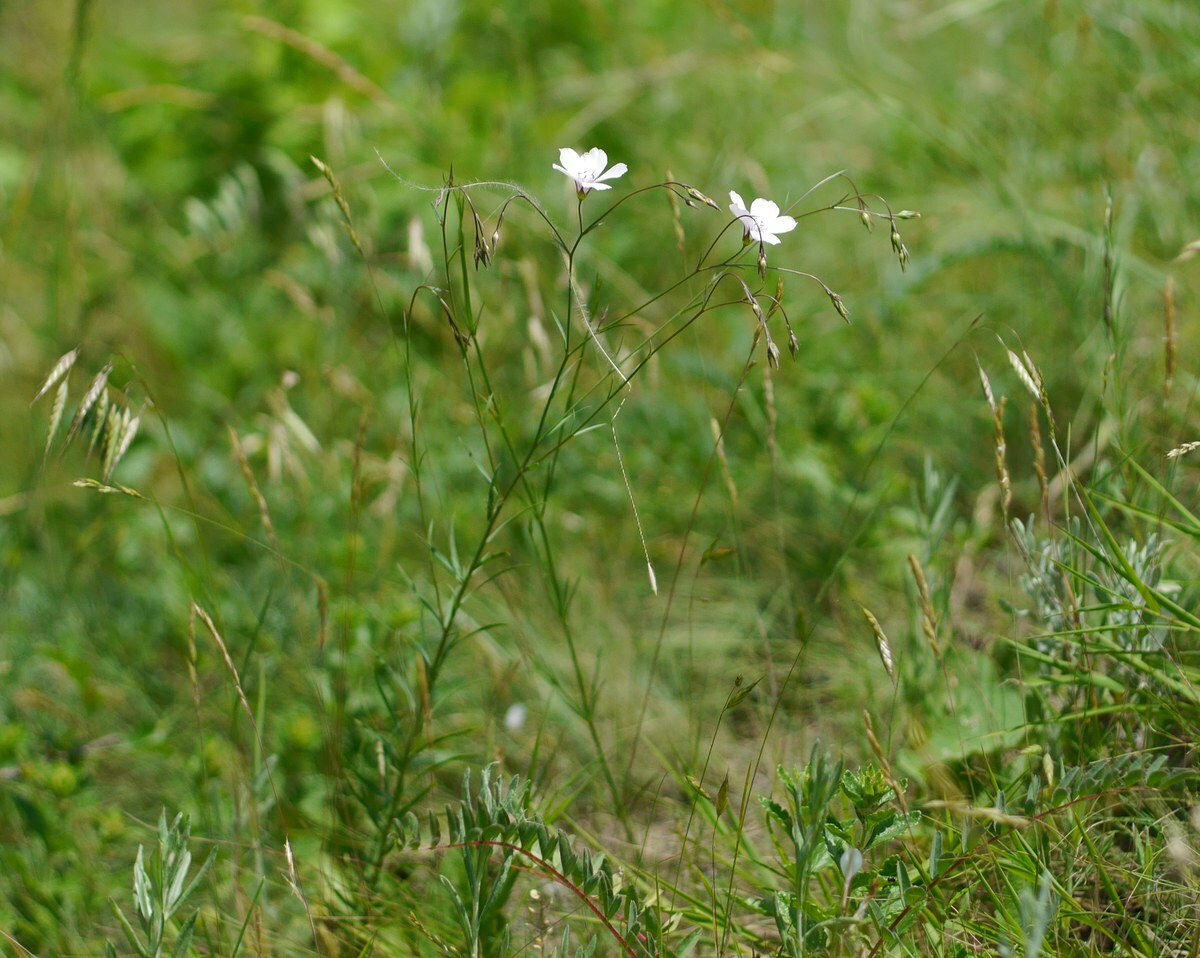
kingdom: Plantae
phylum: Tracheophyta
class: Magnoliopsida
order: Malpighiales
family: Linaceae
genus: Linum
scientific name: Linum tenuifolium
